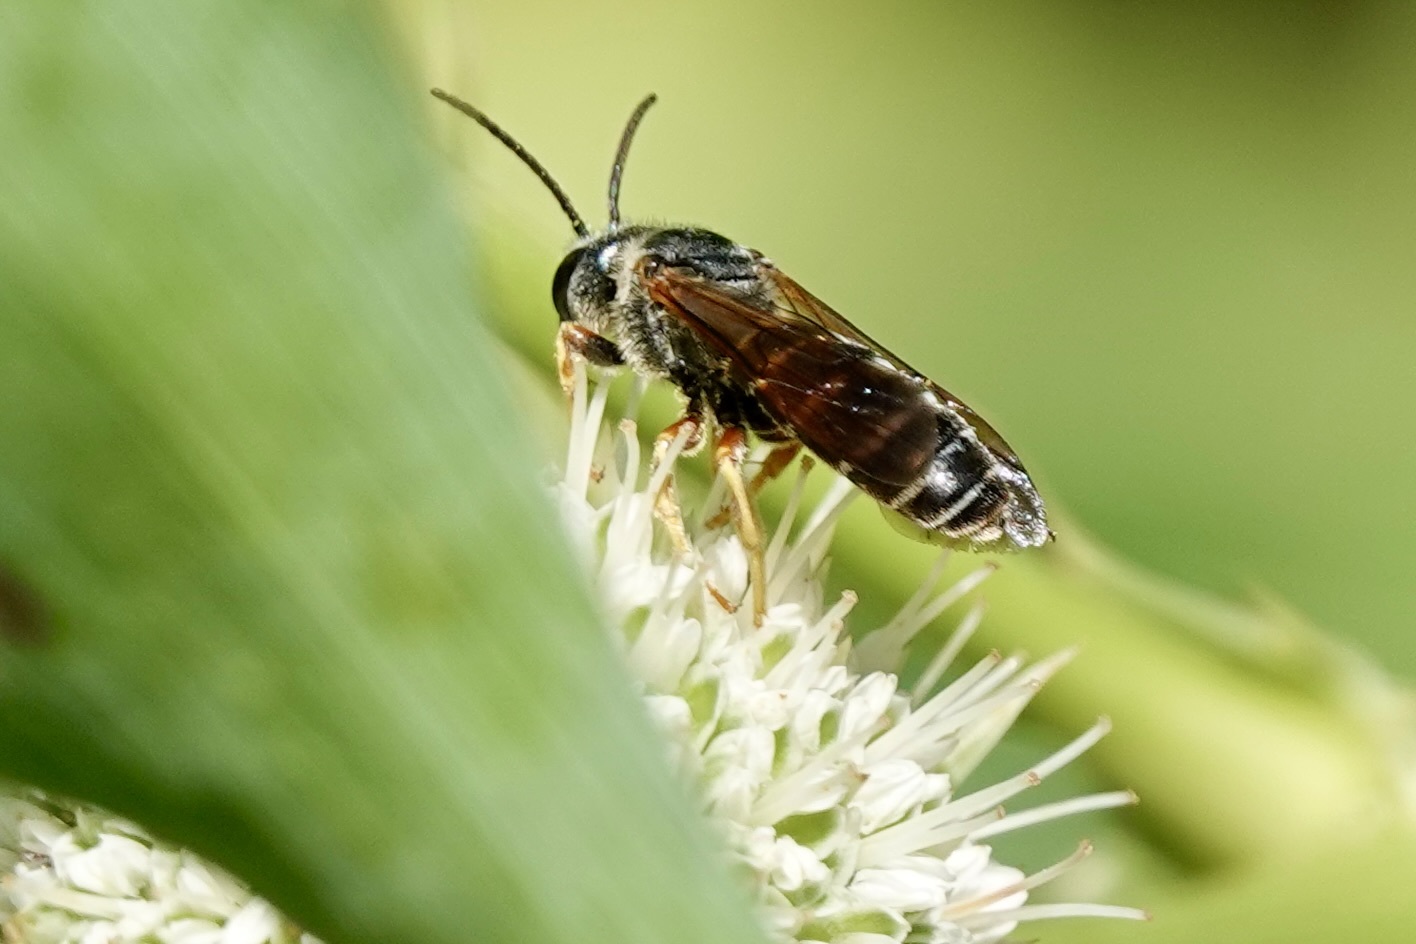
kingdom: Animalia
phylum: Arthropoda
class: Insecta
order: Hymenoptera
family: Halictidae
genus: Halictus
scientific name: Halictus parallelus
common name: Parallel-striped sweat bee
